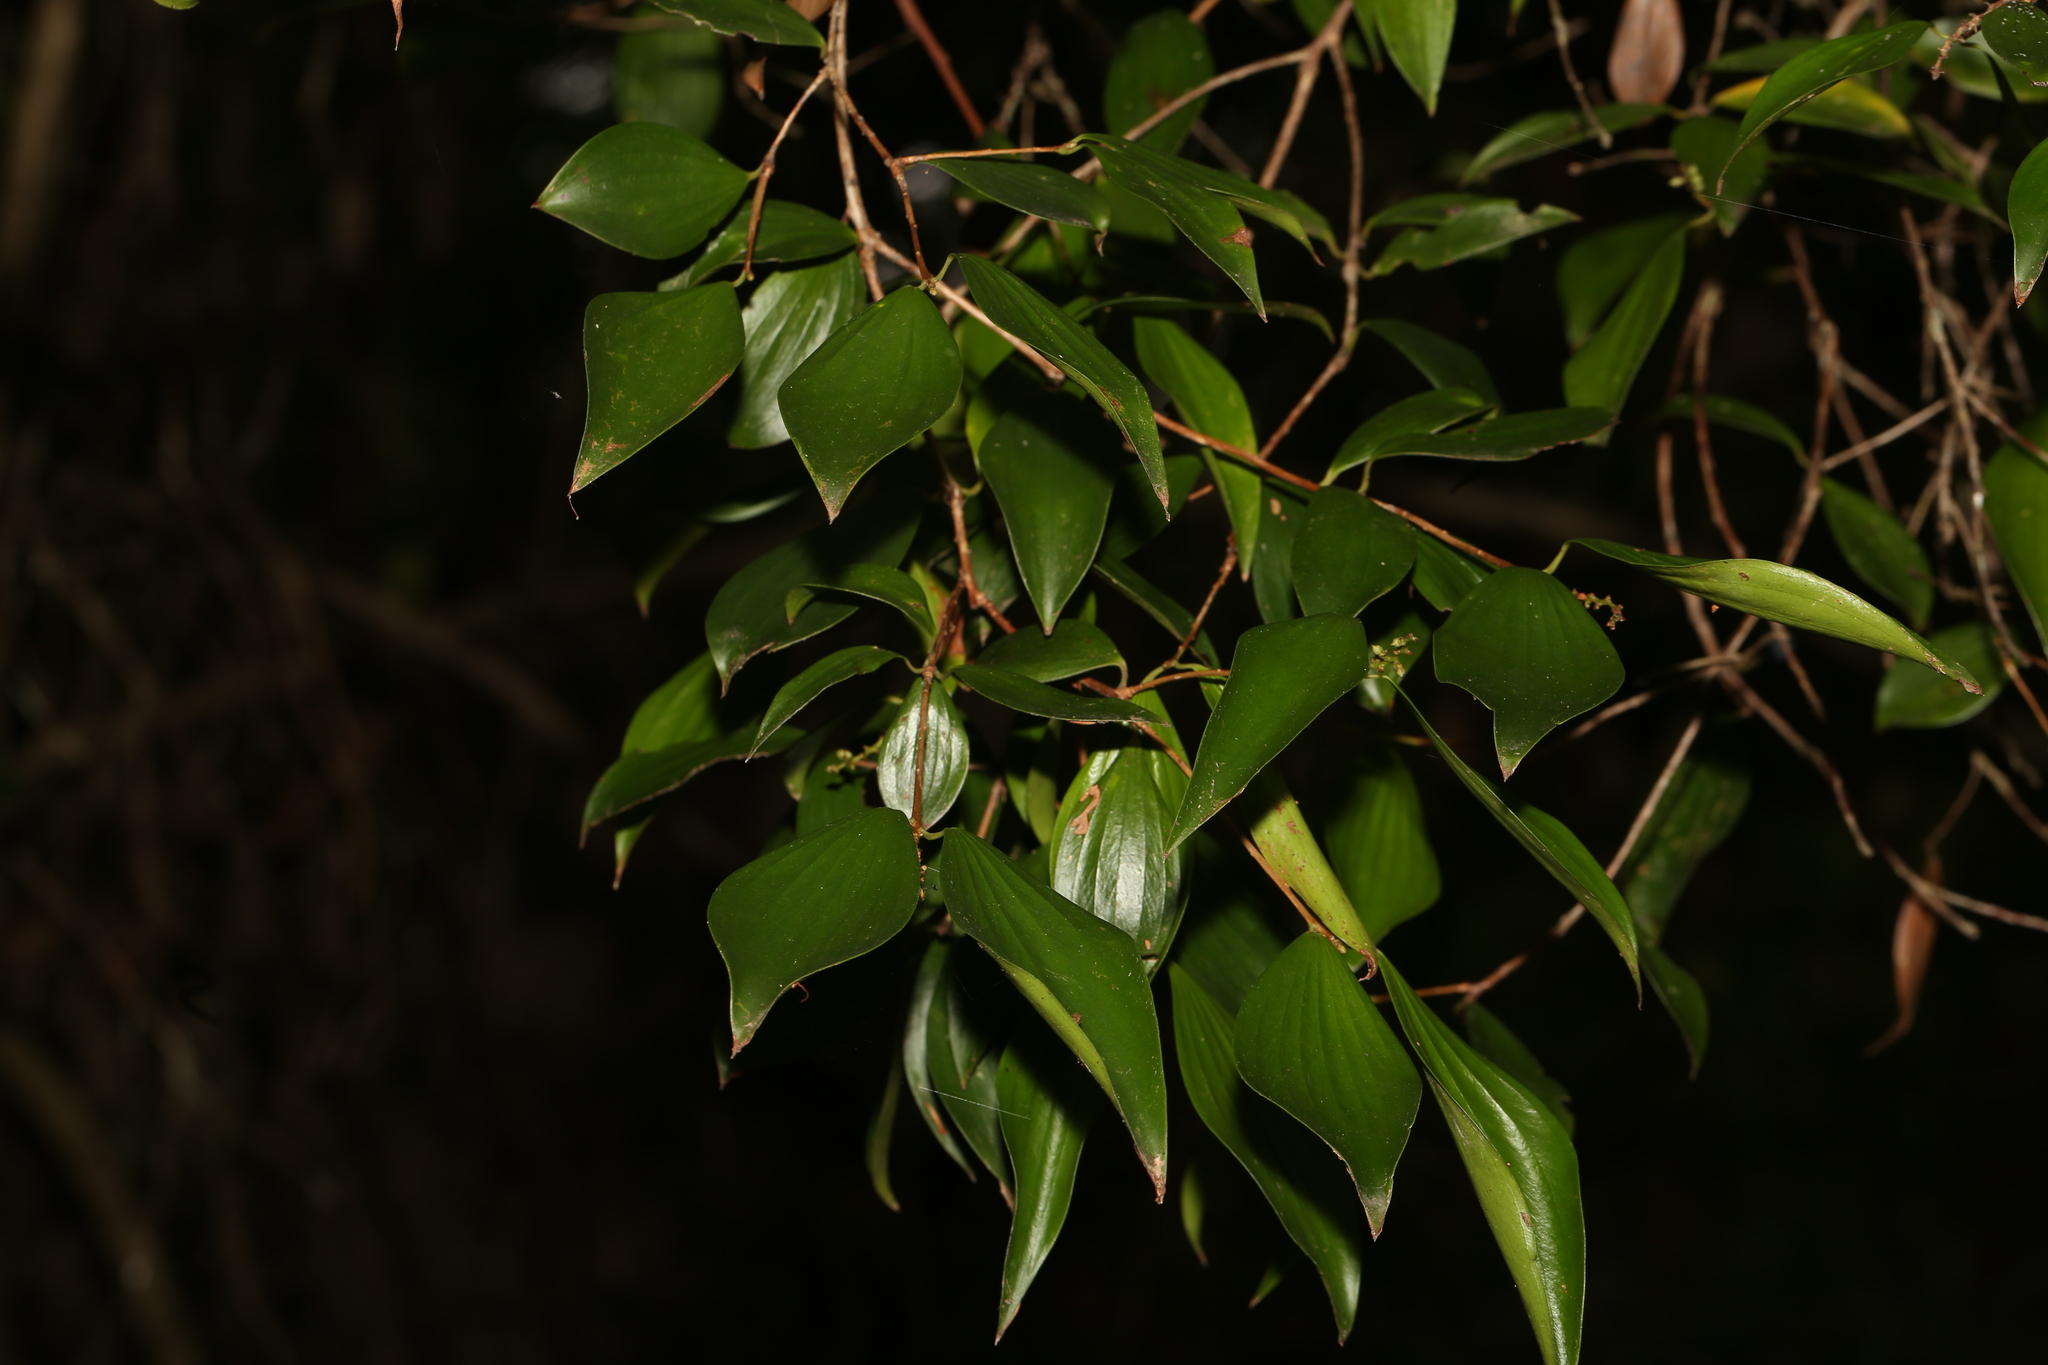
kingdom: Plantae
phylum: Tracheophyta
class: Magnoliopsida
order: Ericales
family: Ericaceae
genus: Trochocarpa
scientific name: Trochocarpa laurina
